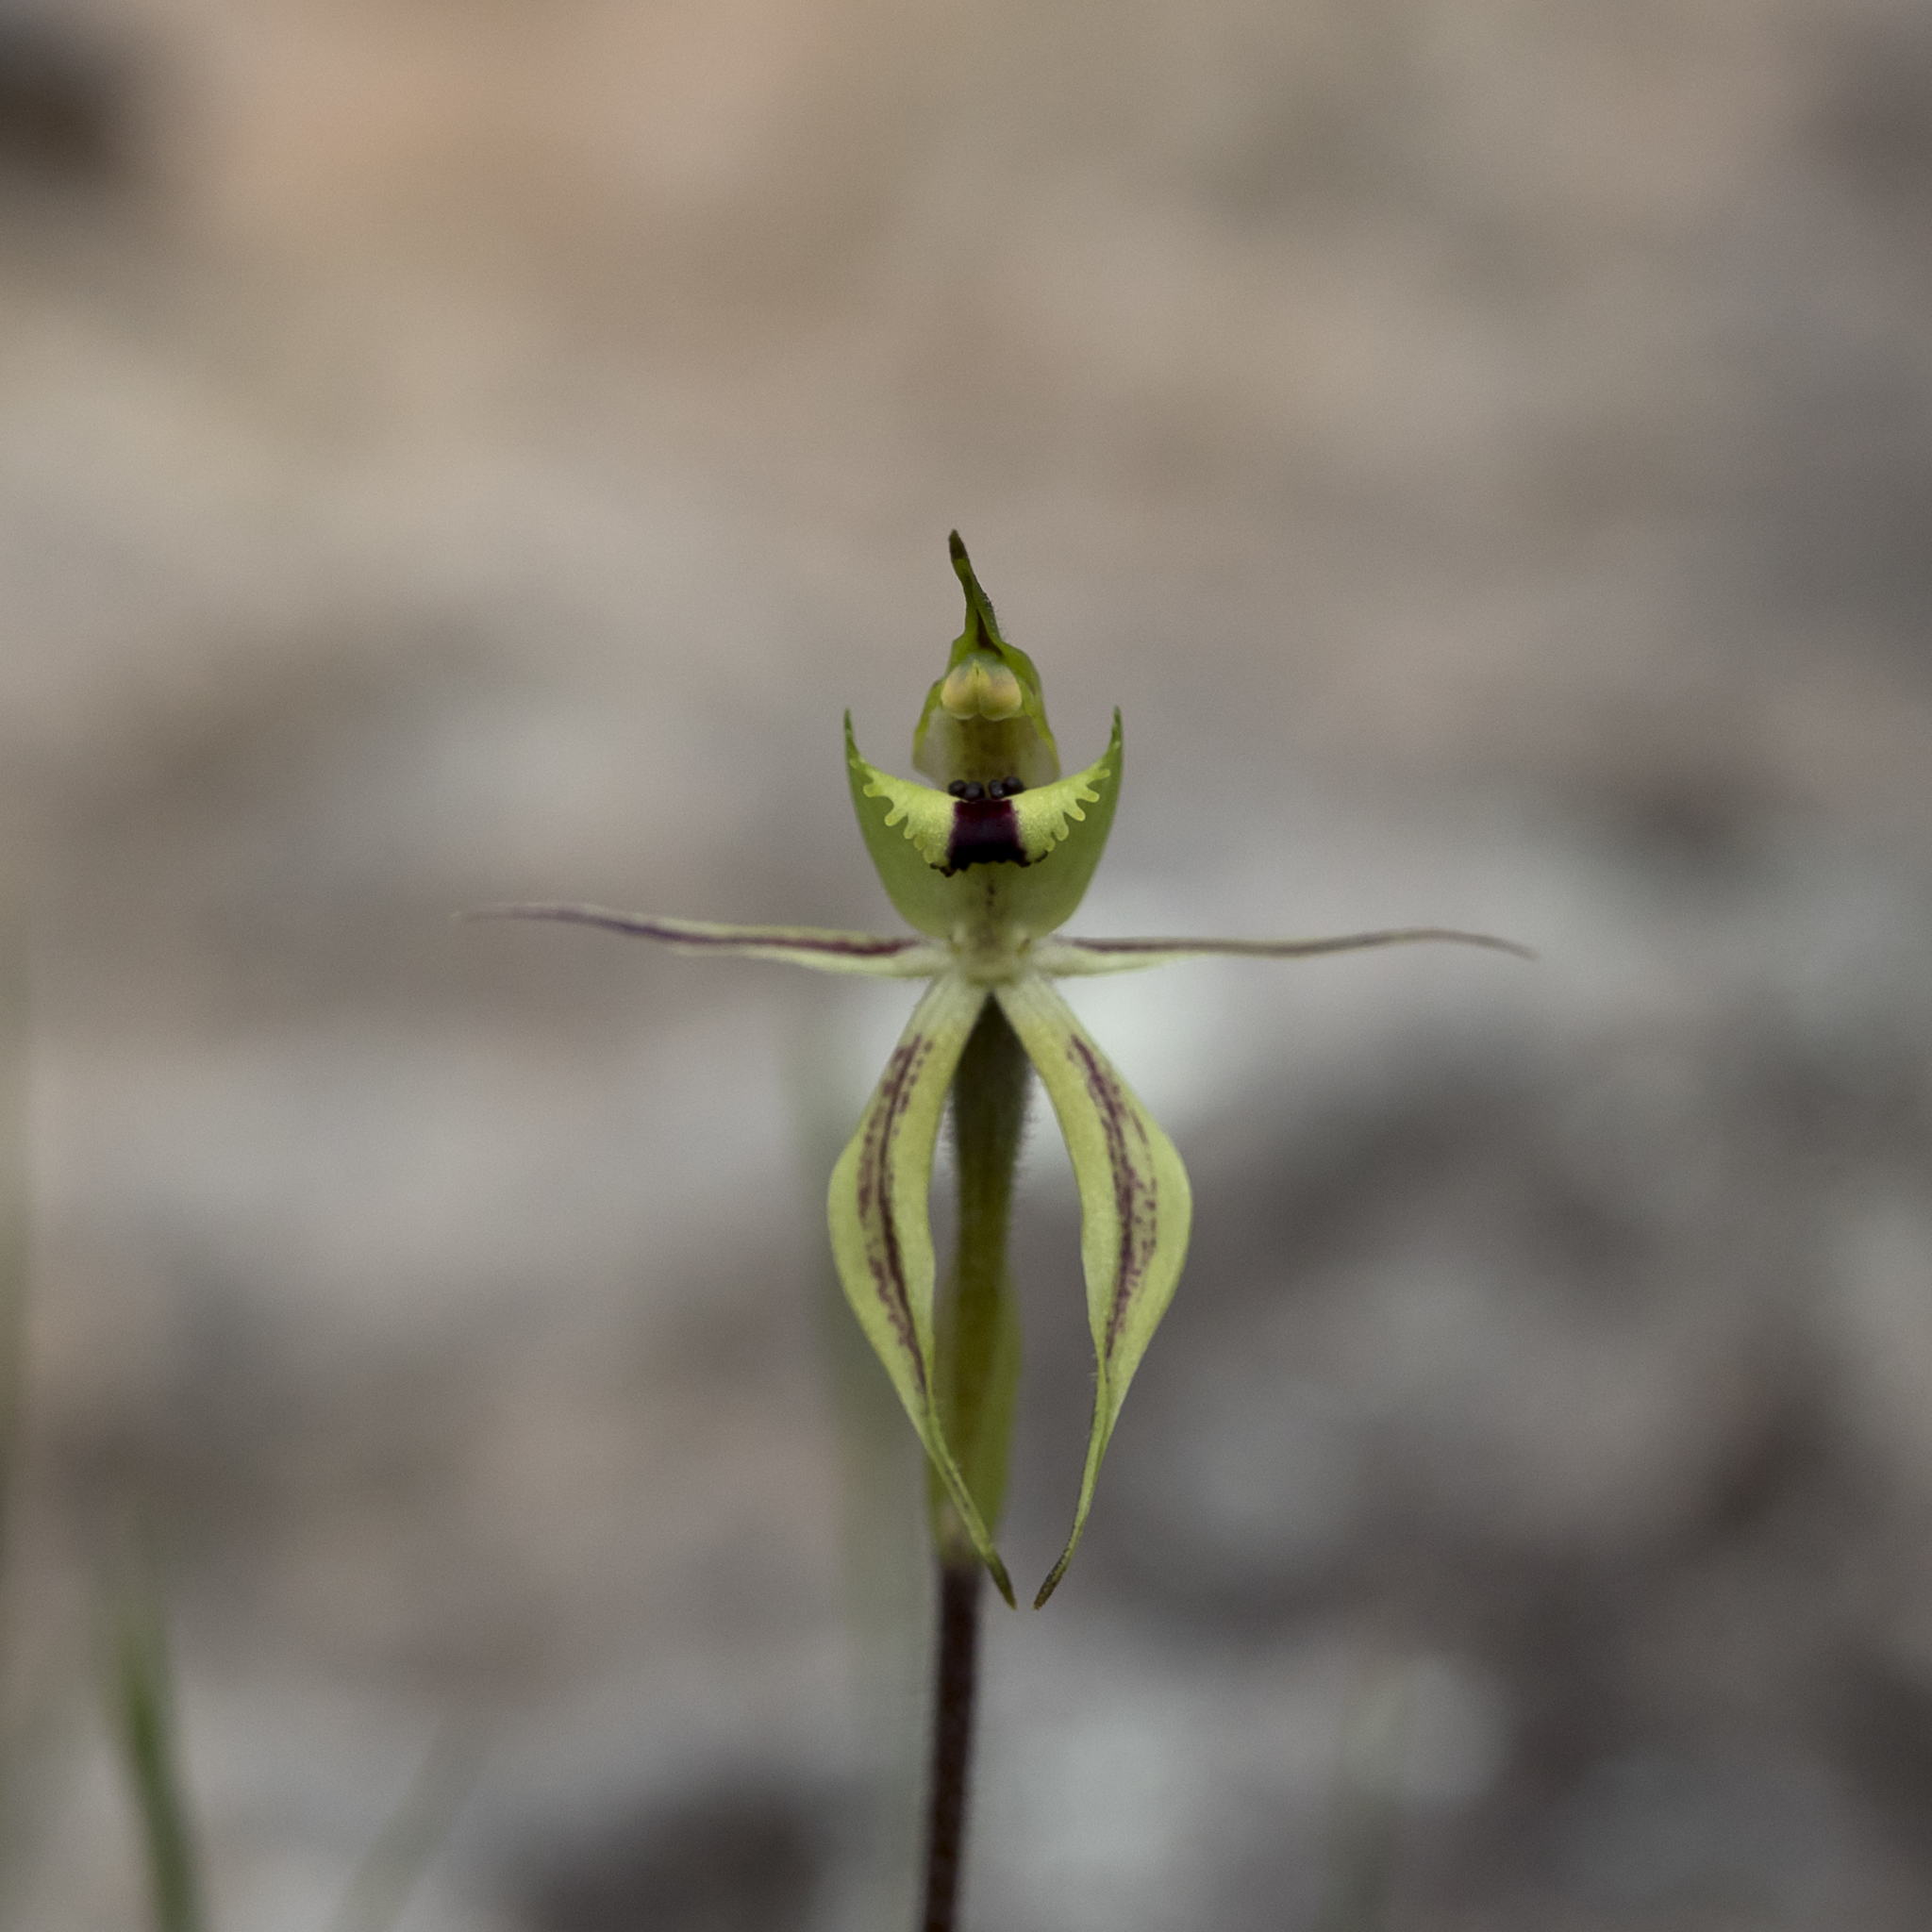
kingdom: Plantae
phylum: Tracheophyta
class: Liliopsida
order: Asparagales
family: Orchidaceae
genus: Caladenia
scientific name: Caladenia toxochila
